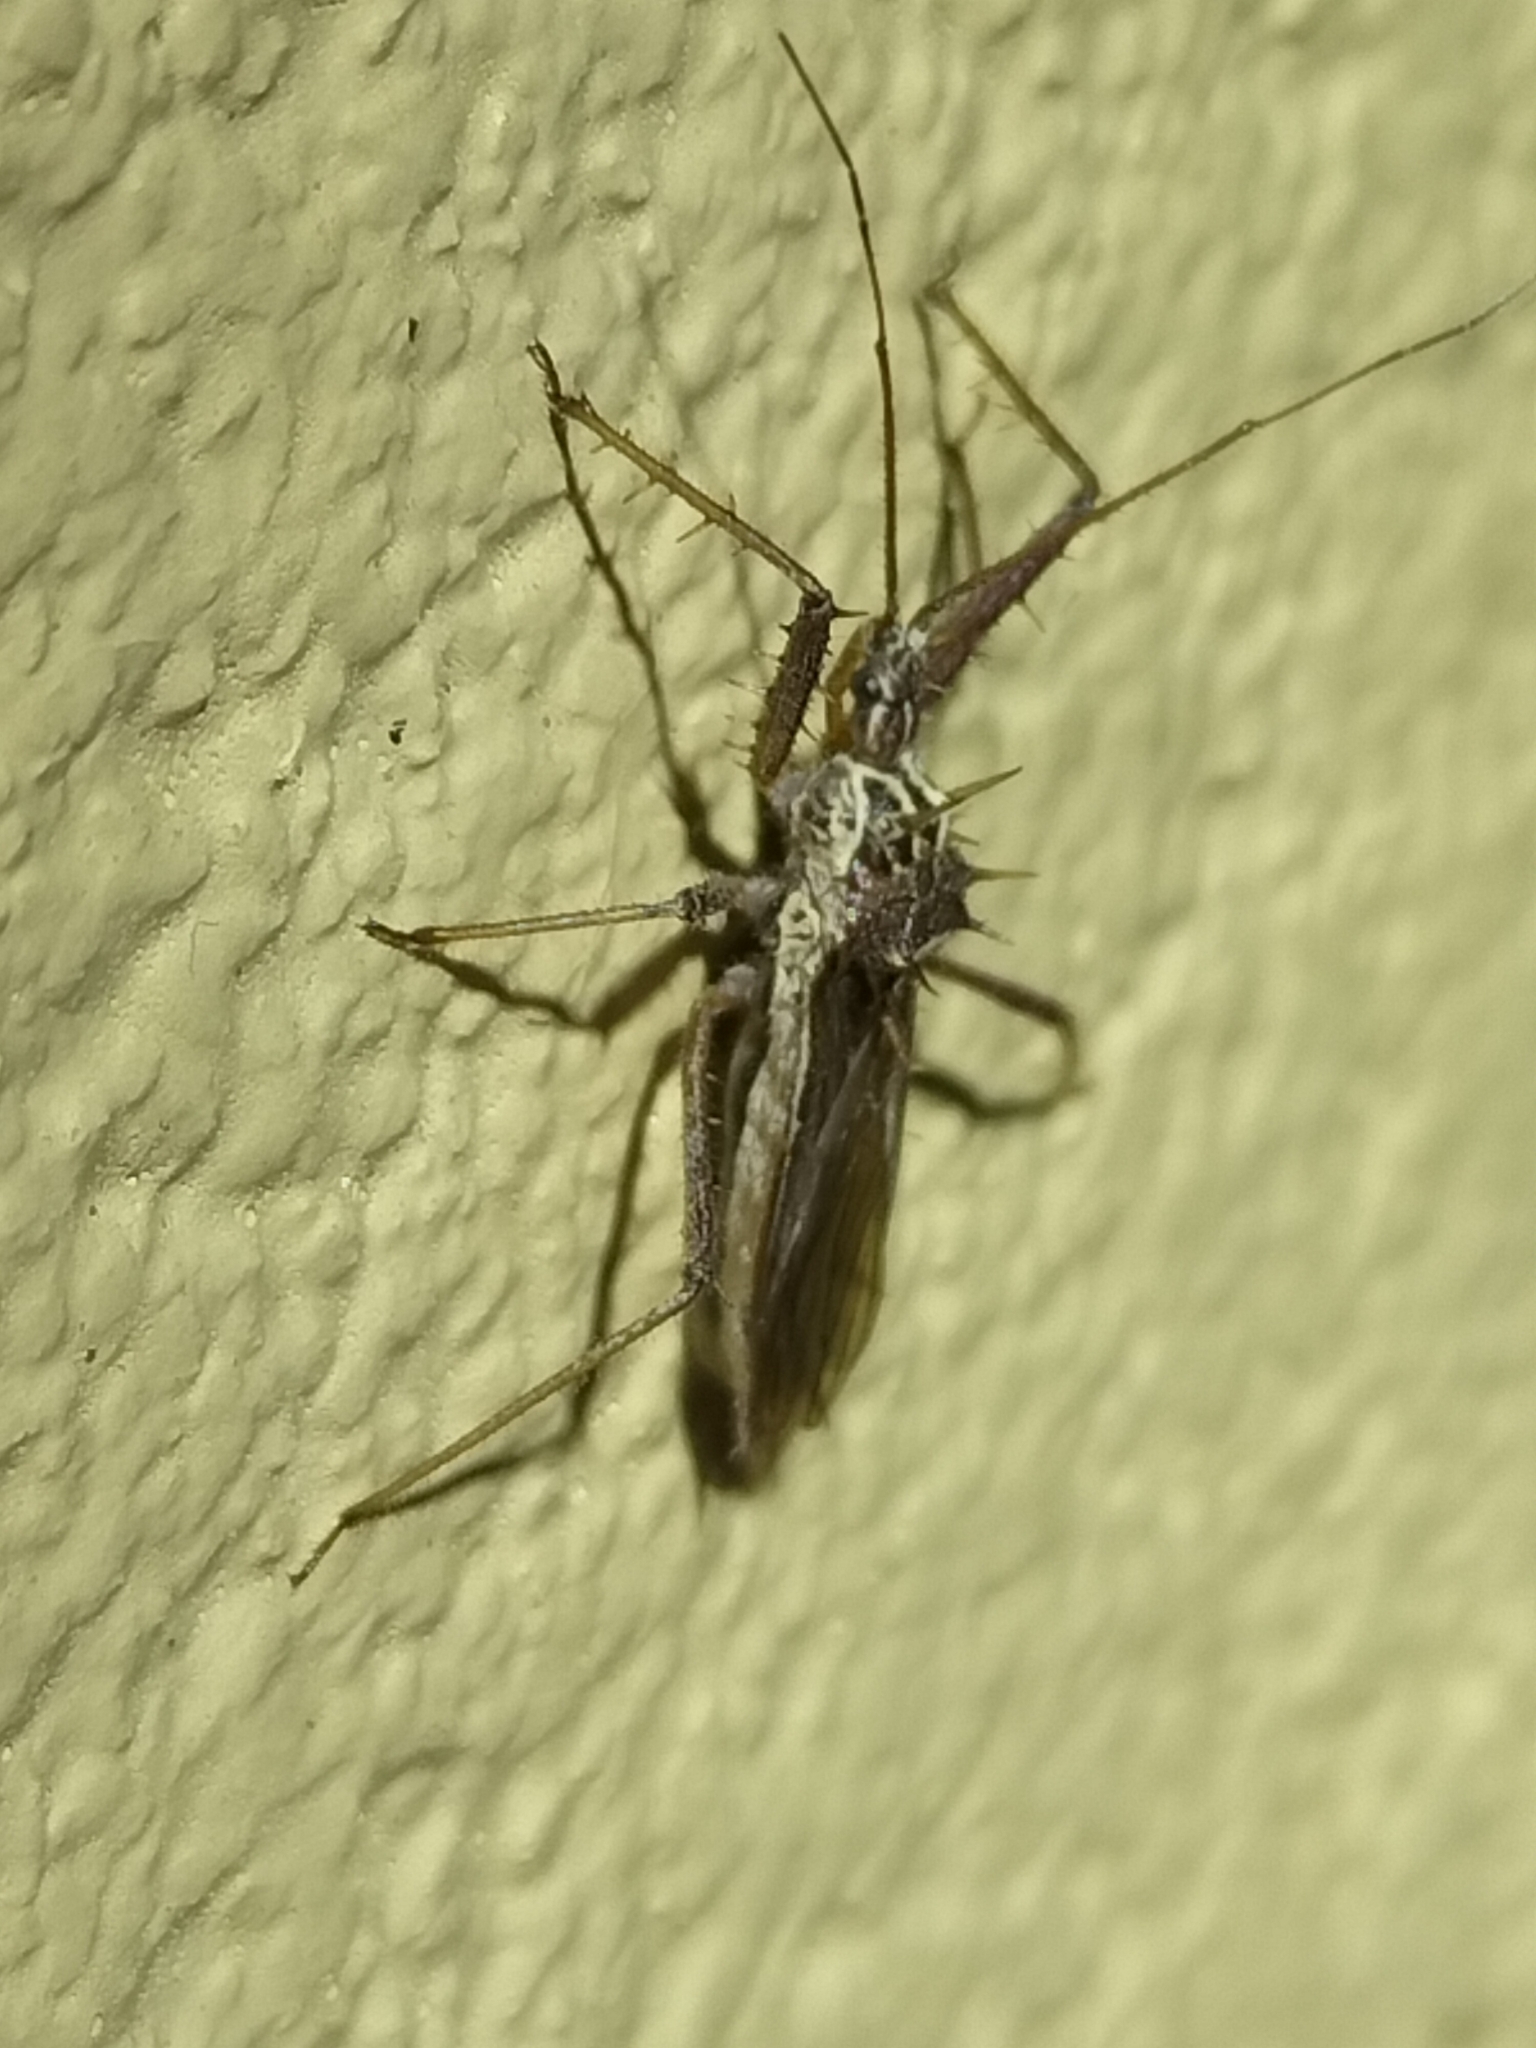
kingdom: Animalia
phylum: Arthropoda
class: Insecta
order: Hemiptera
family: Reduviidae
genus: Polididus
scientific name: Polididus australis
